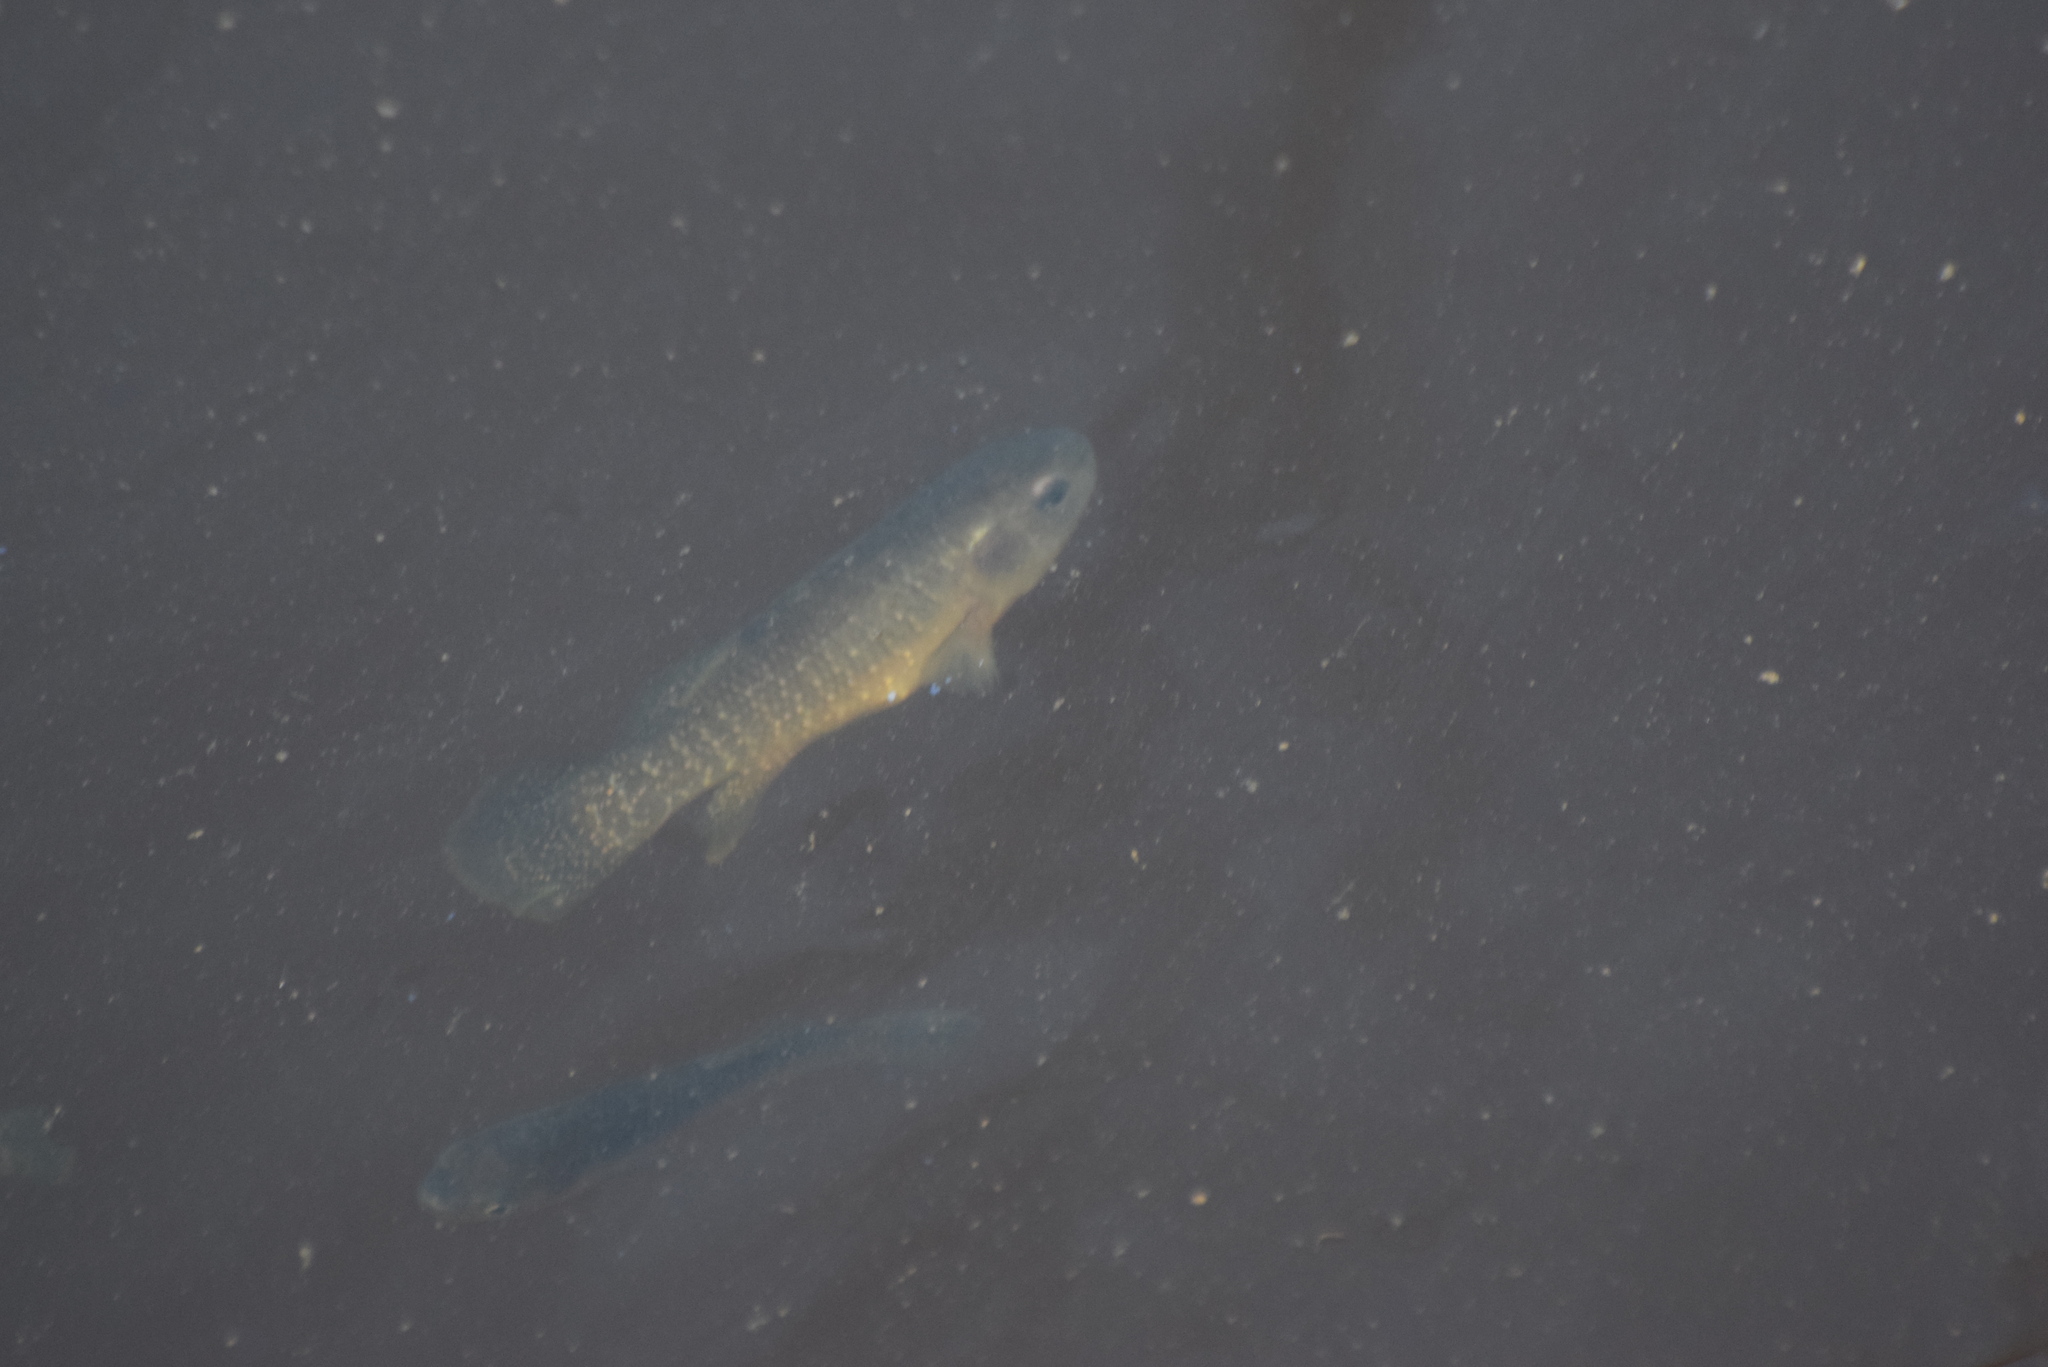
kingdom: Animalia
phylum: Chordata
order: Cyprinodontiformes
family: Fundulidae
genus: Fundulus
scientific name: Fundulus heteroclitus
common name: Mummichog
